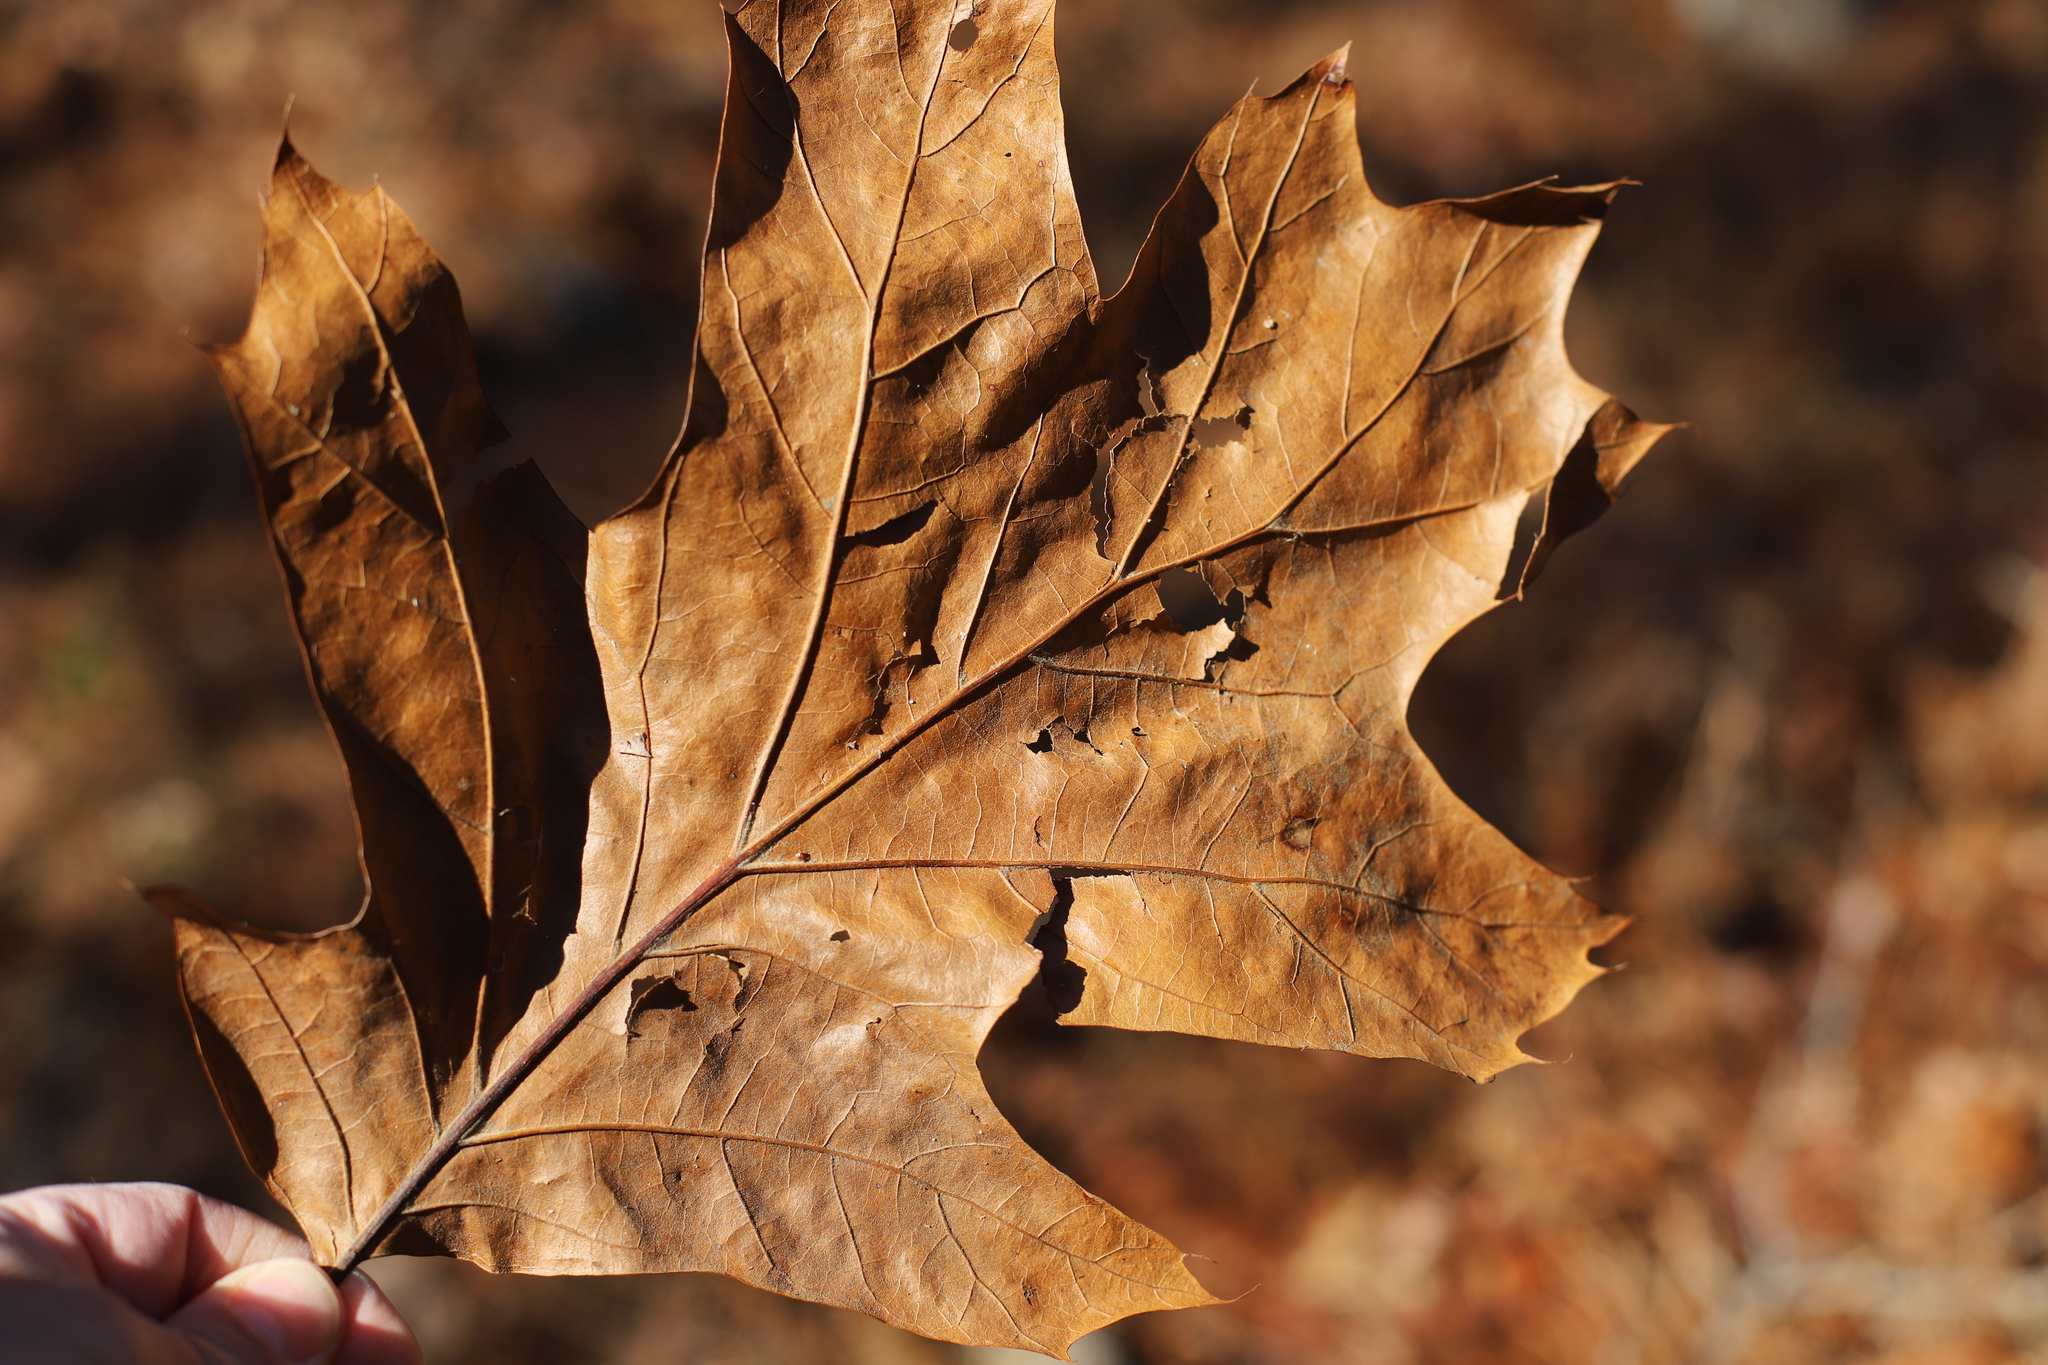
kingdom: Plantae
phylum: Tracheophyta
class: Magnoliopsida
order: Fagales
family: Fagaceae
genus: Quercus
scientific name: Quercus rubra
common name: Red oak
